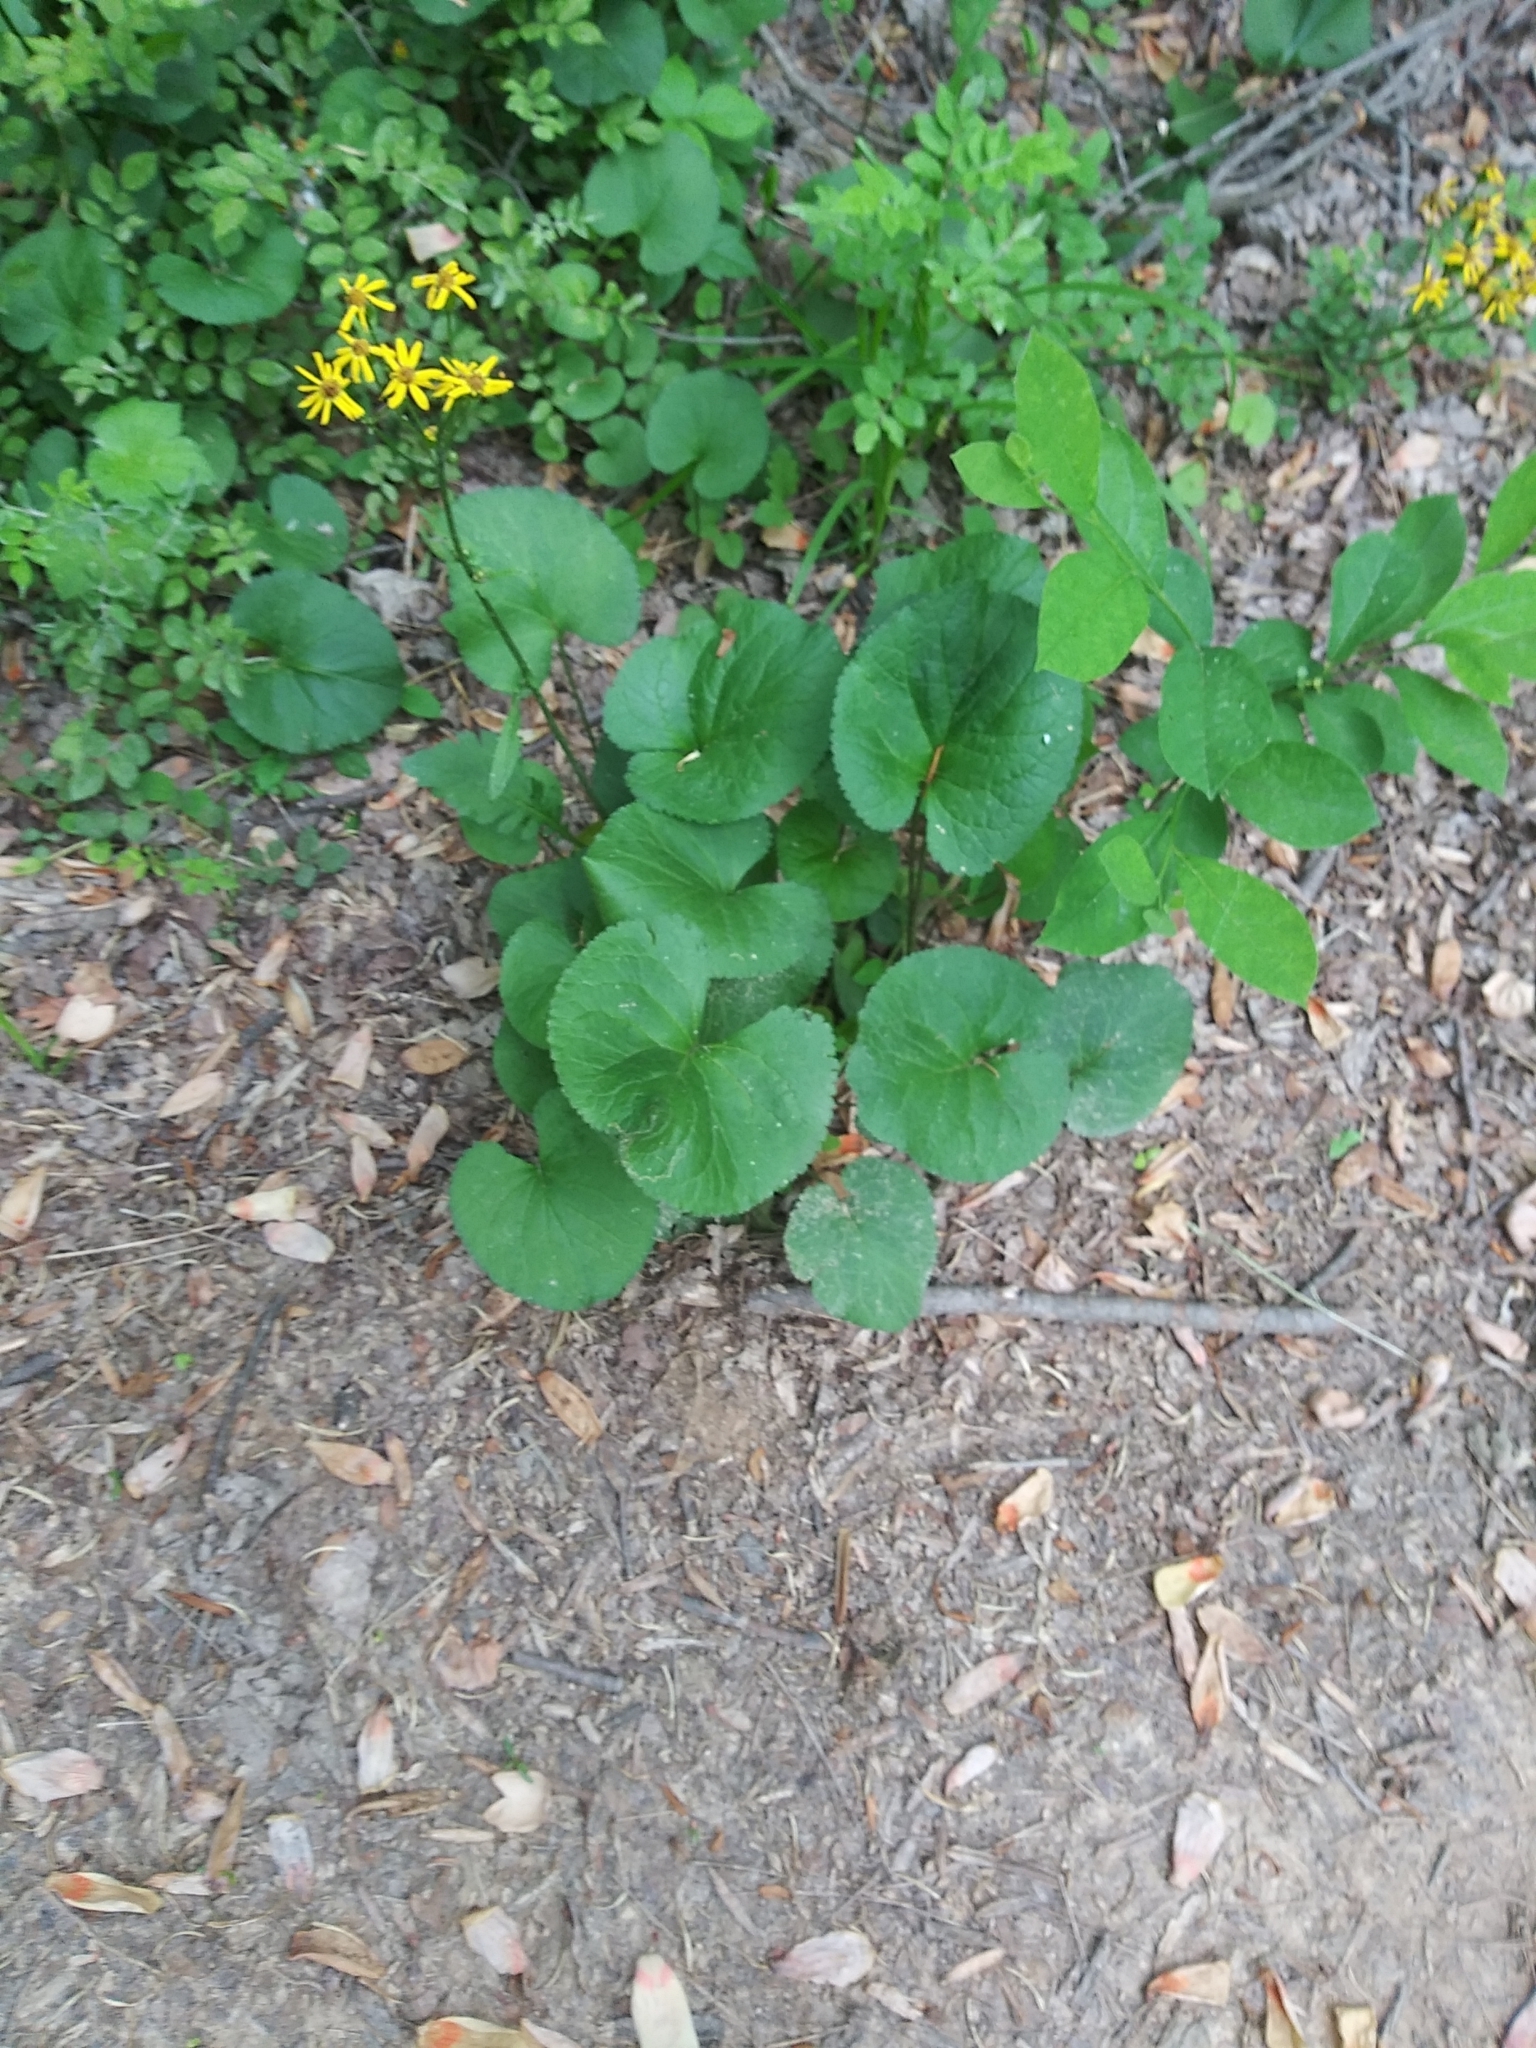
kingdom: Plantae
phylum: Tracheophyta
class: Magnoliopsida
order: Asterales
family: Asteraceae
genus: Packera
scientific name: Packera aurea
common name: Golden groundsel
